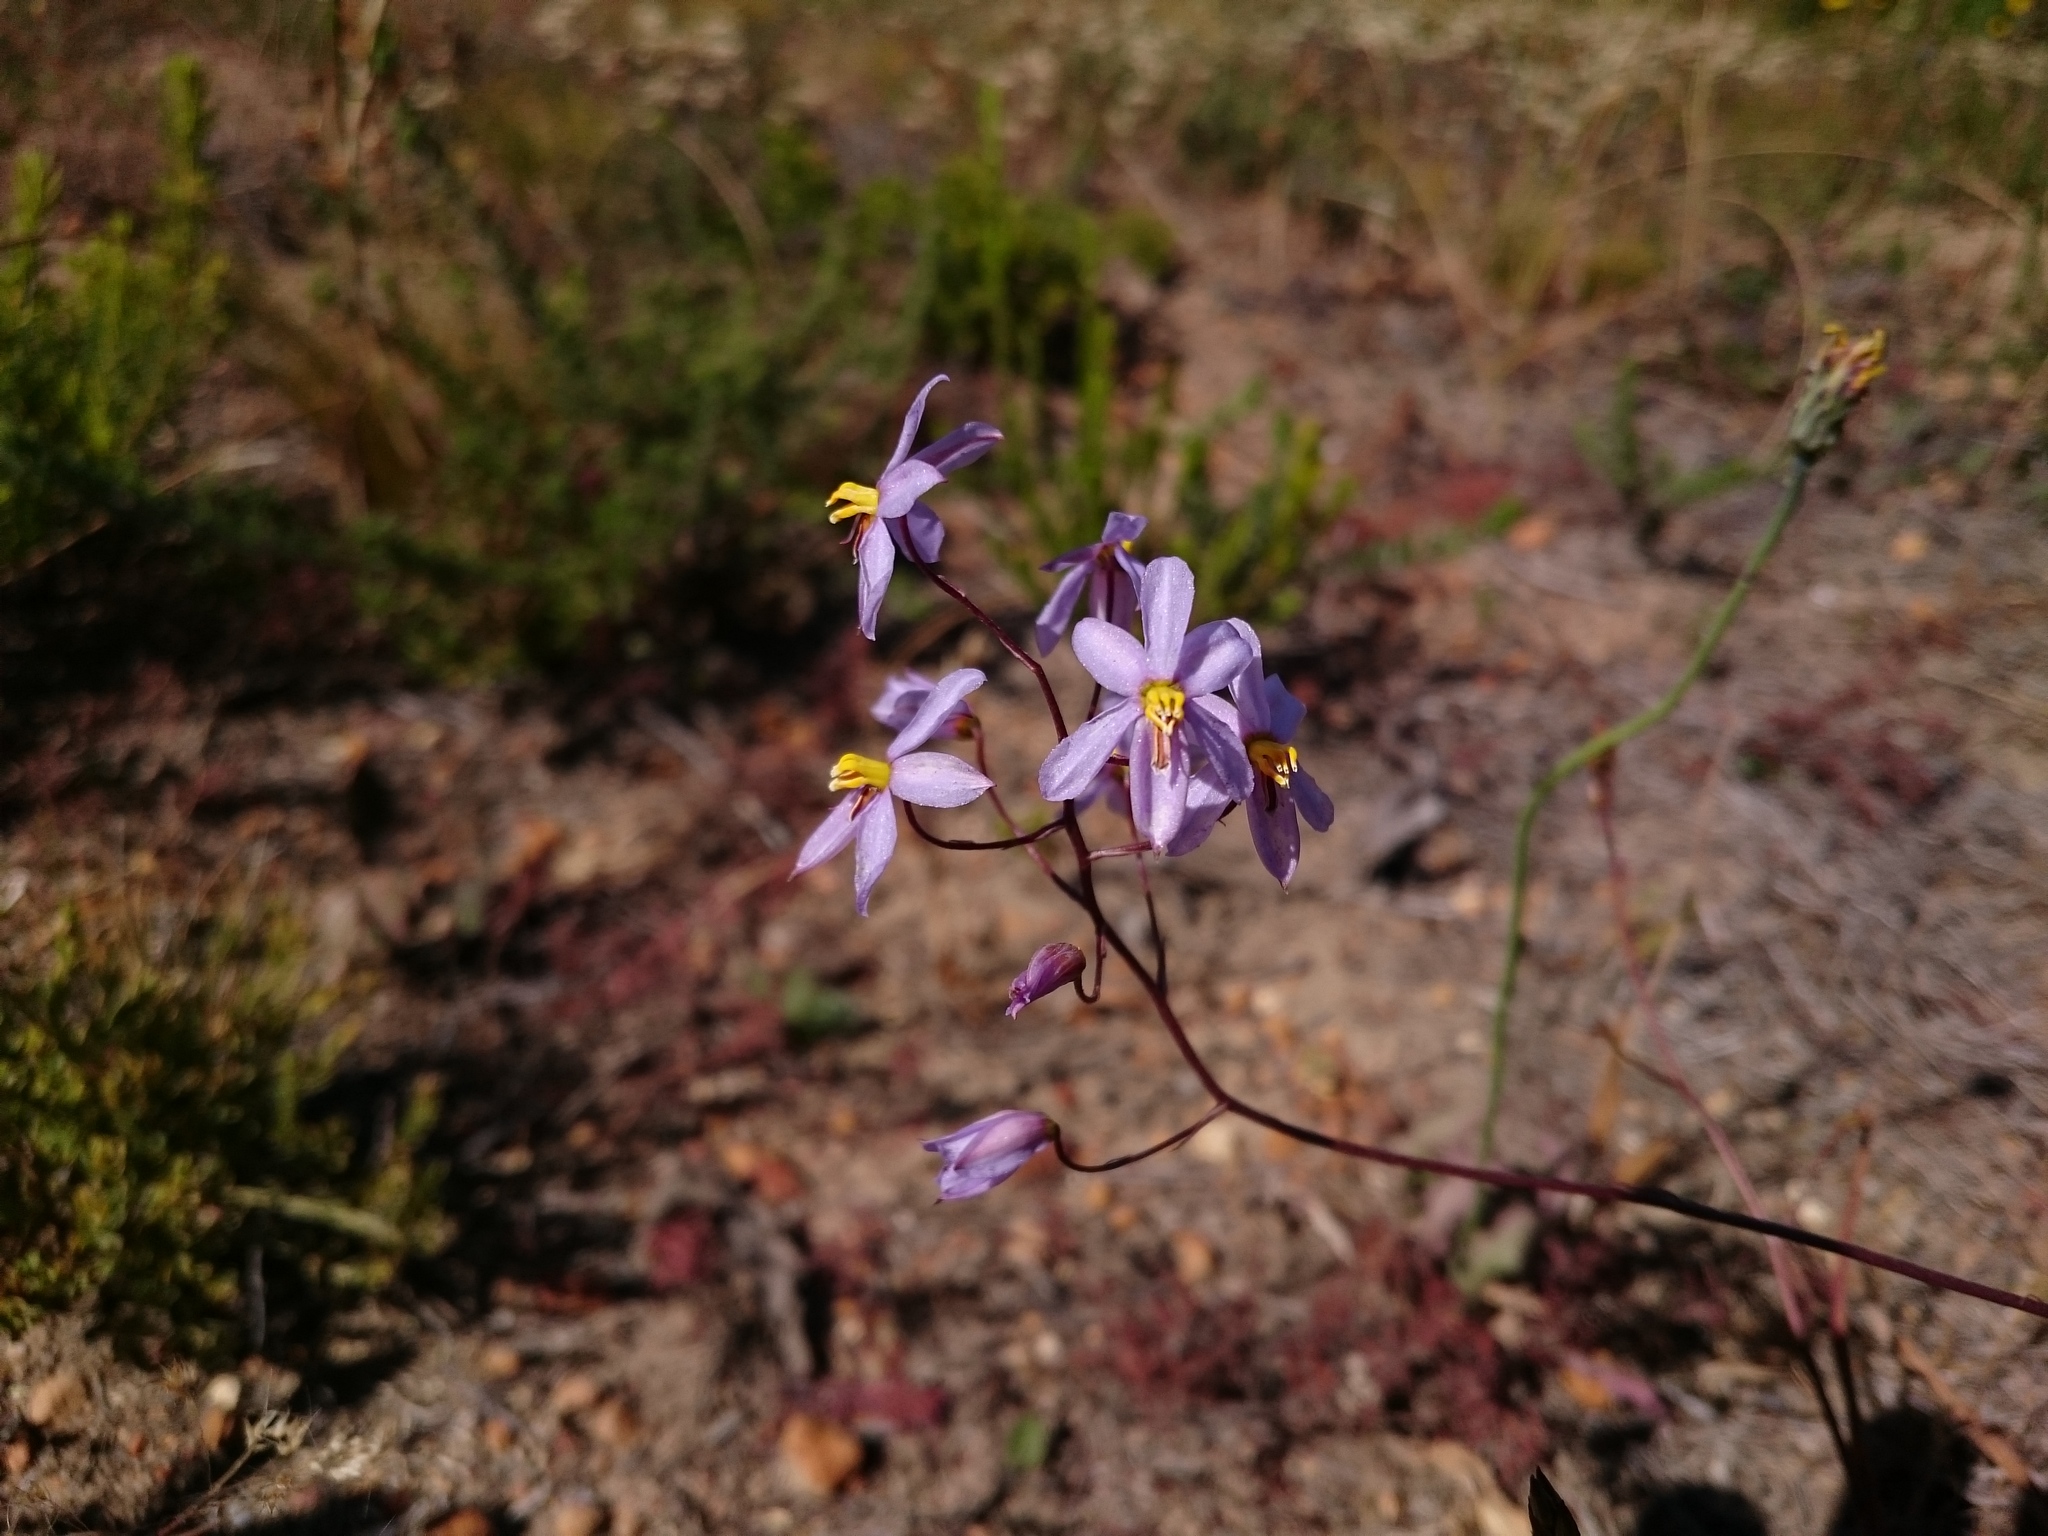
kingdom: Plantae
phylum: Tracheophyta
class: Liliopsida
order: Asparagales
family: Tecophilaeaceae
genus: Cyanella
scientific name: Cyanella hyacinthoides
